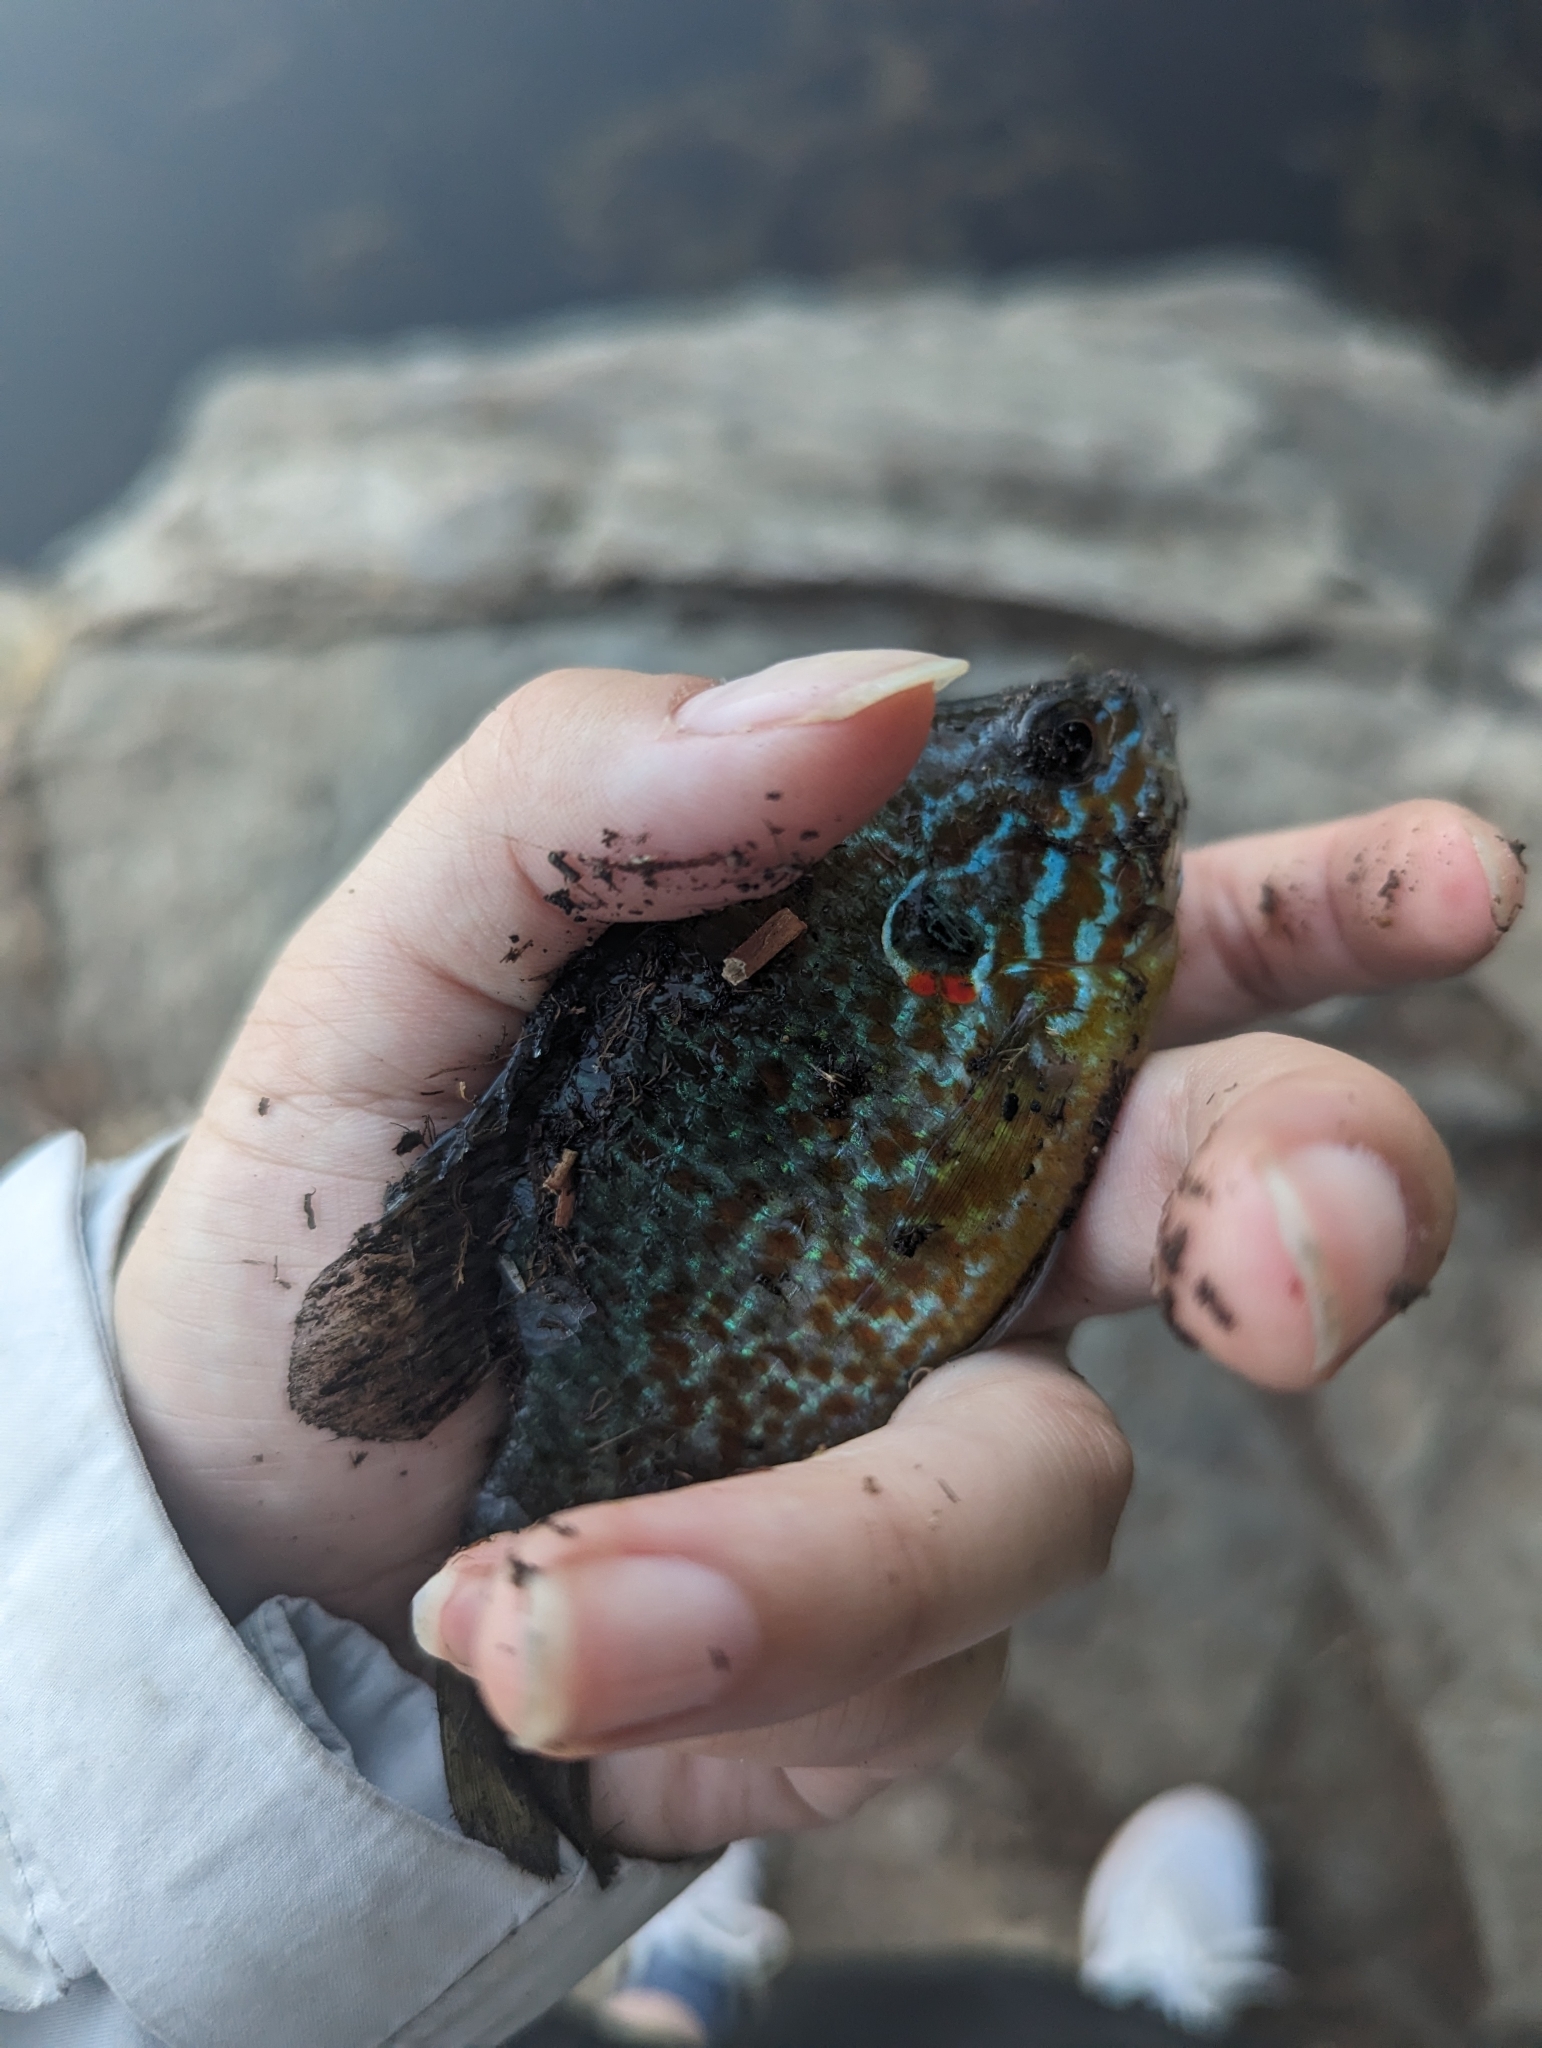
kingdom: Animalia
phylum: Chordata
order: Perciformes
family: Centrarchidae
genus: Lepomis
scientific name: Lepomis gibbosus
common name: Pumpkinseed
